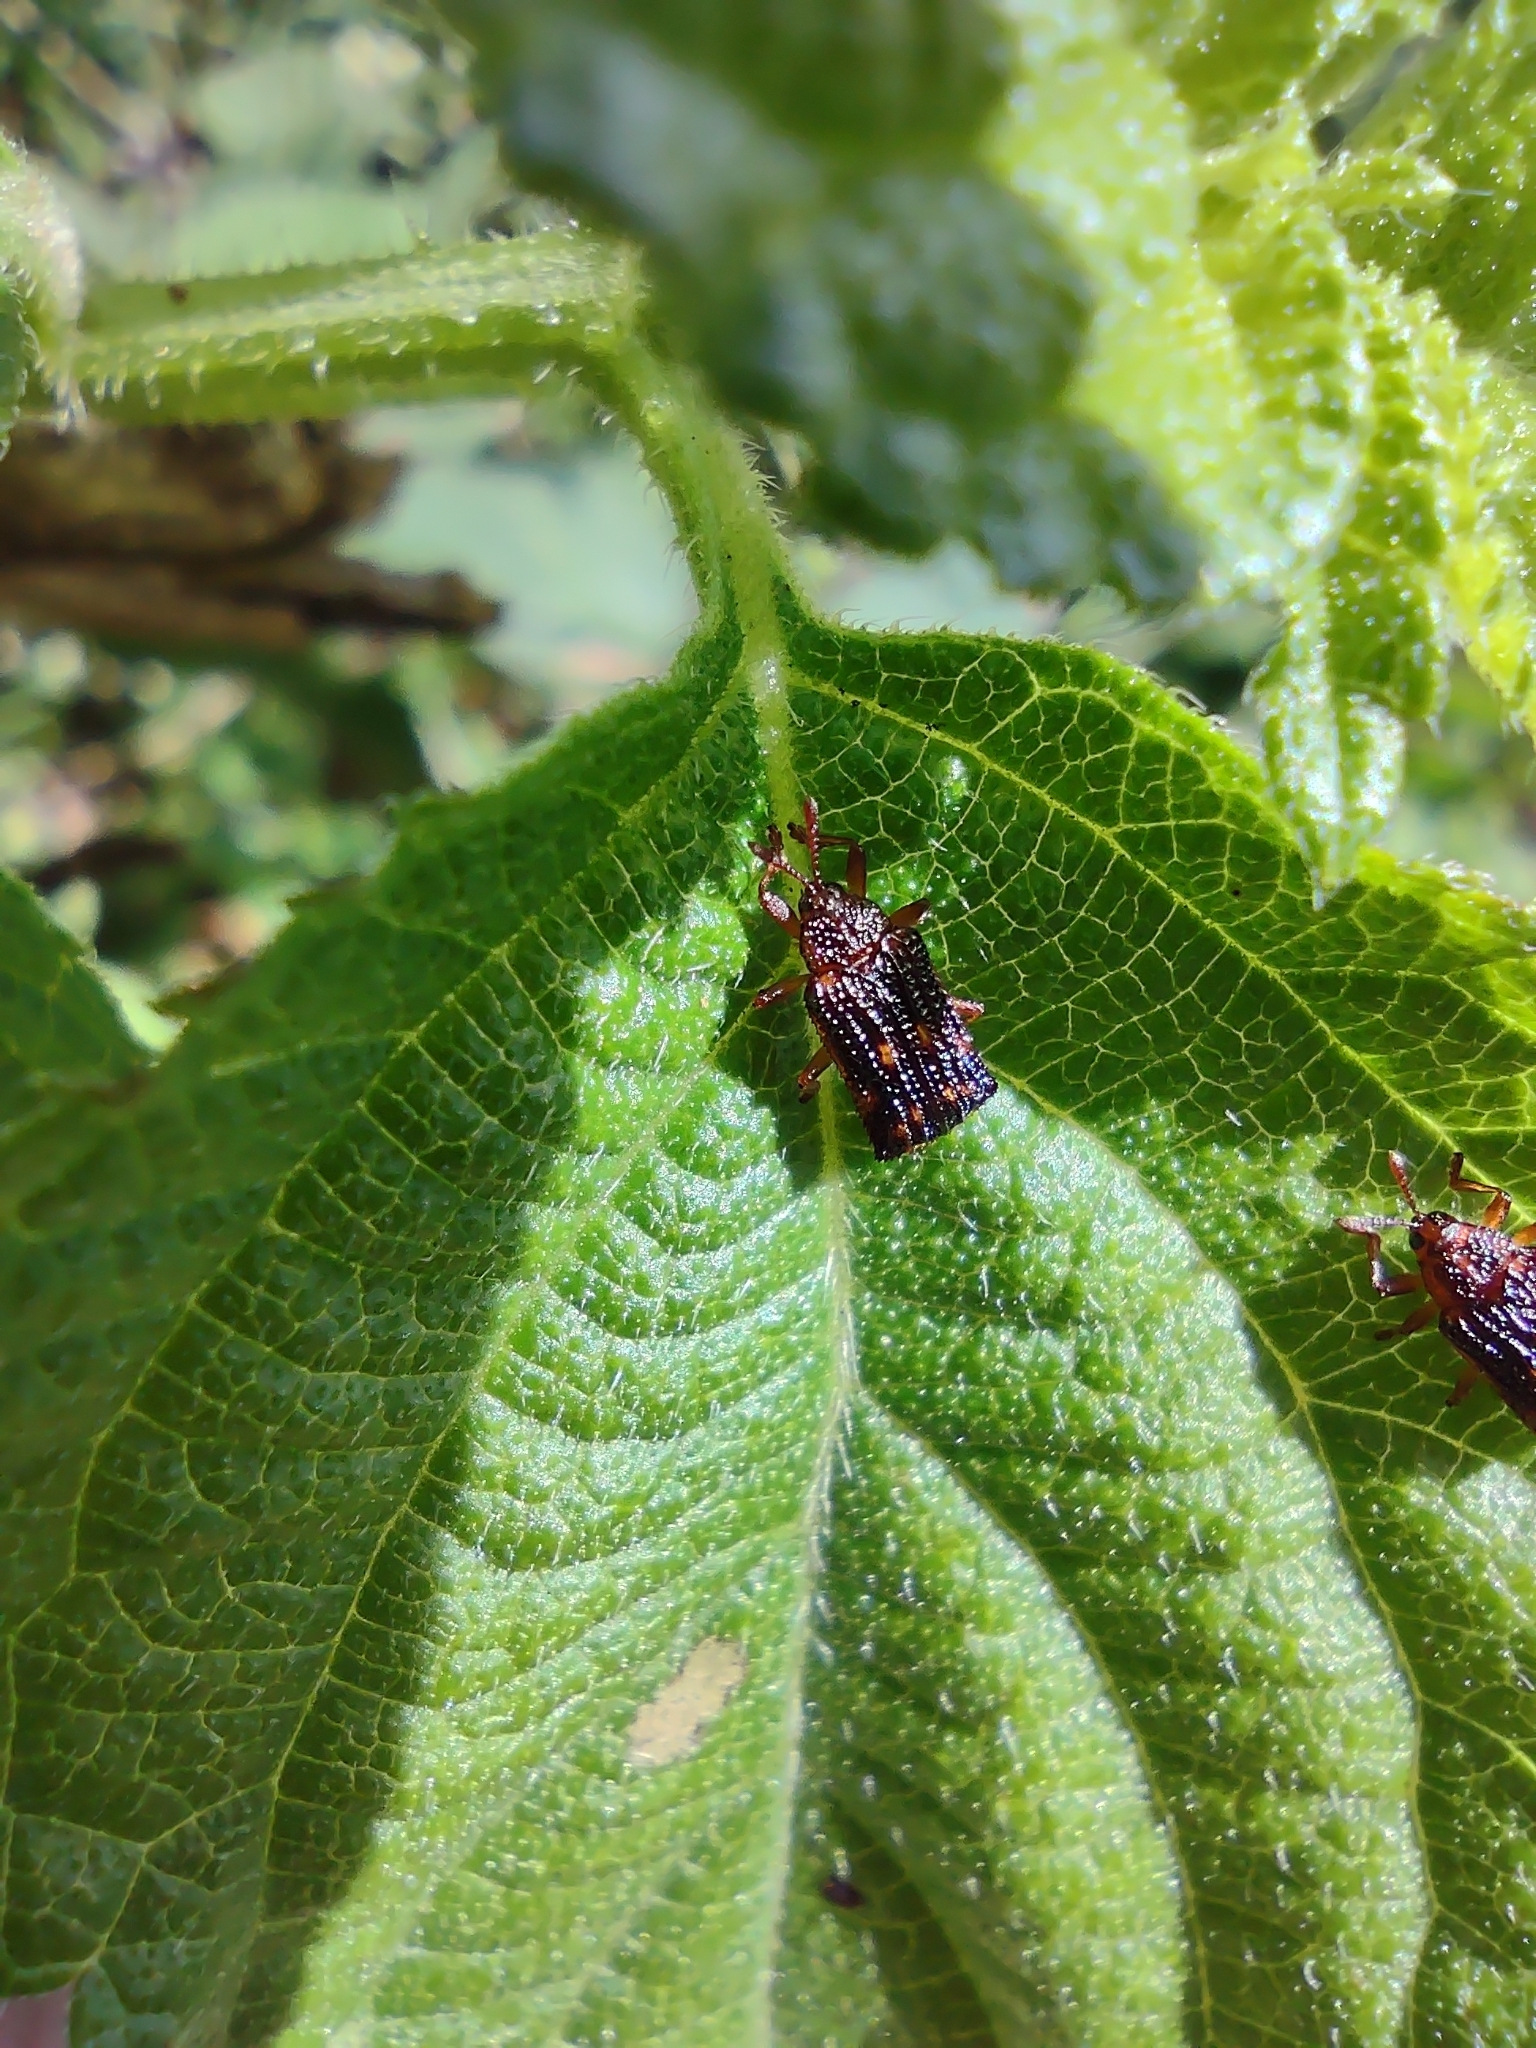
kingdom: Animalia
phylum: Arthropoda
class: Insecta
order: Coleoptera
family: Chrysomelidae
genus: Uroplata
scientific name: Uroplata girardi
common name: Lantana leafminer
